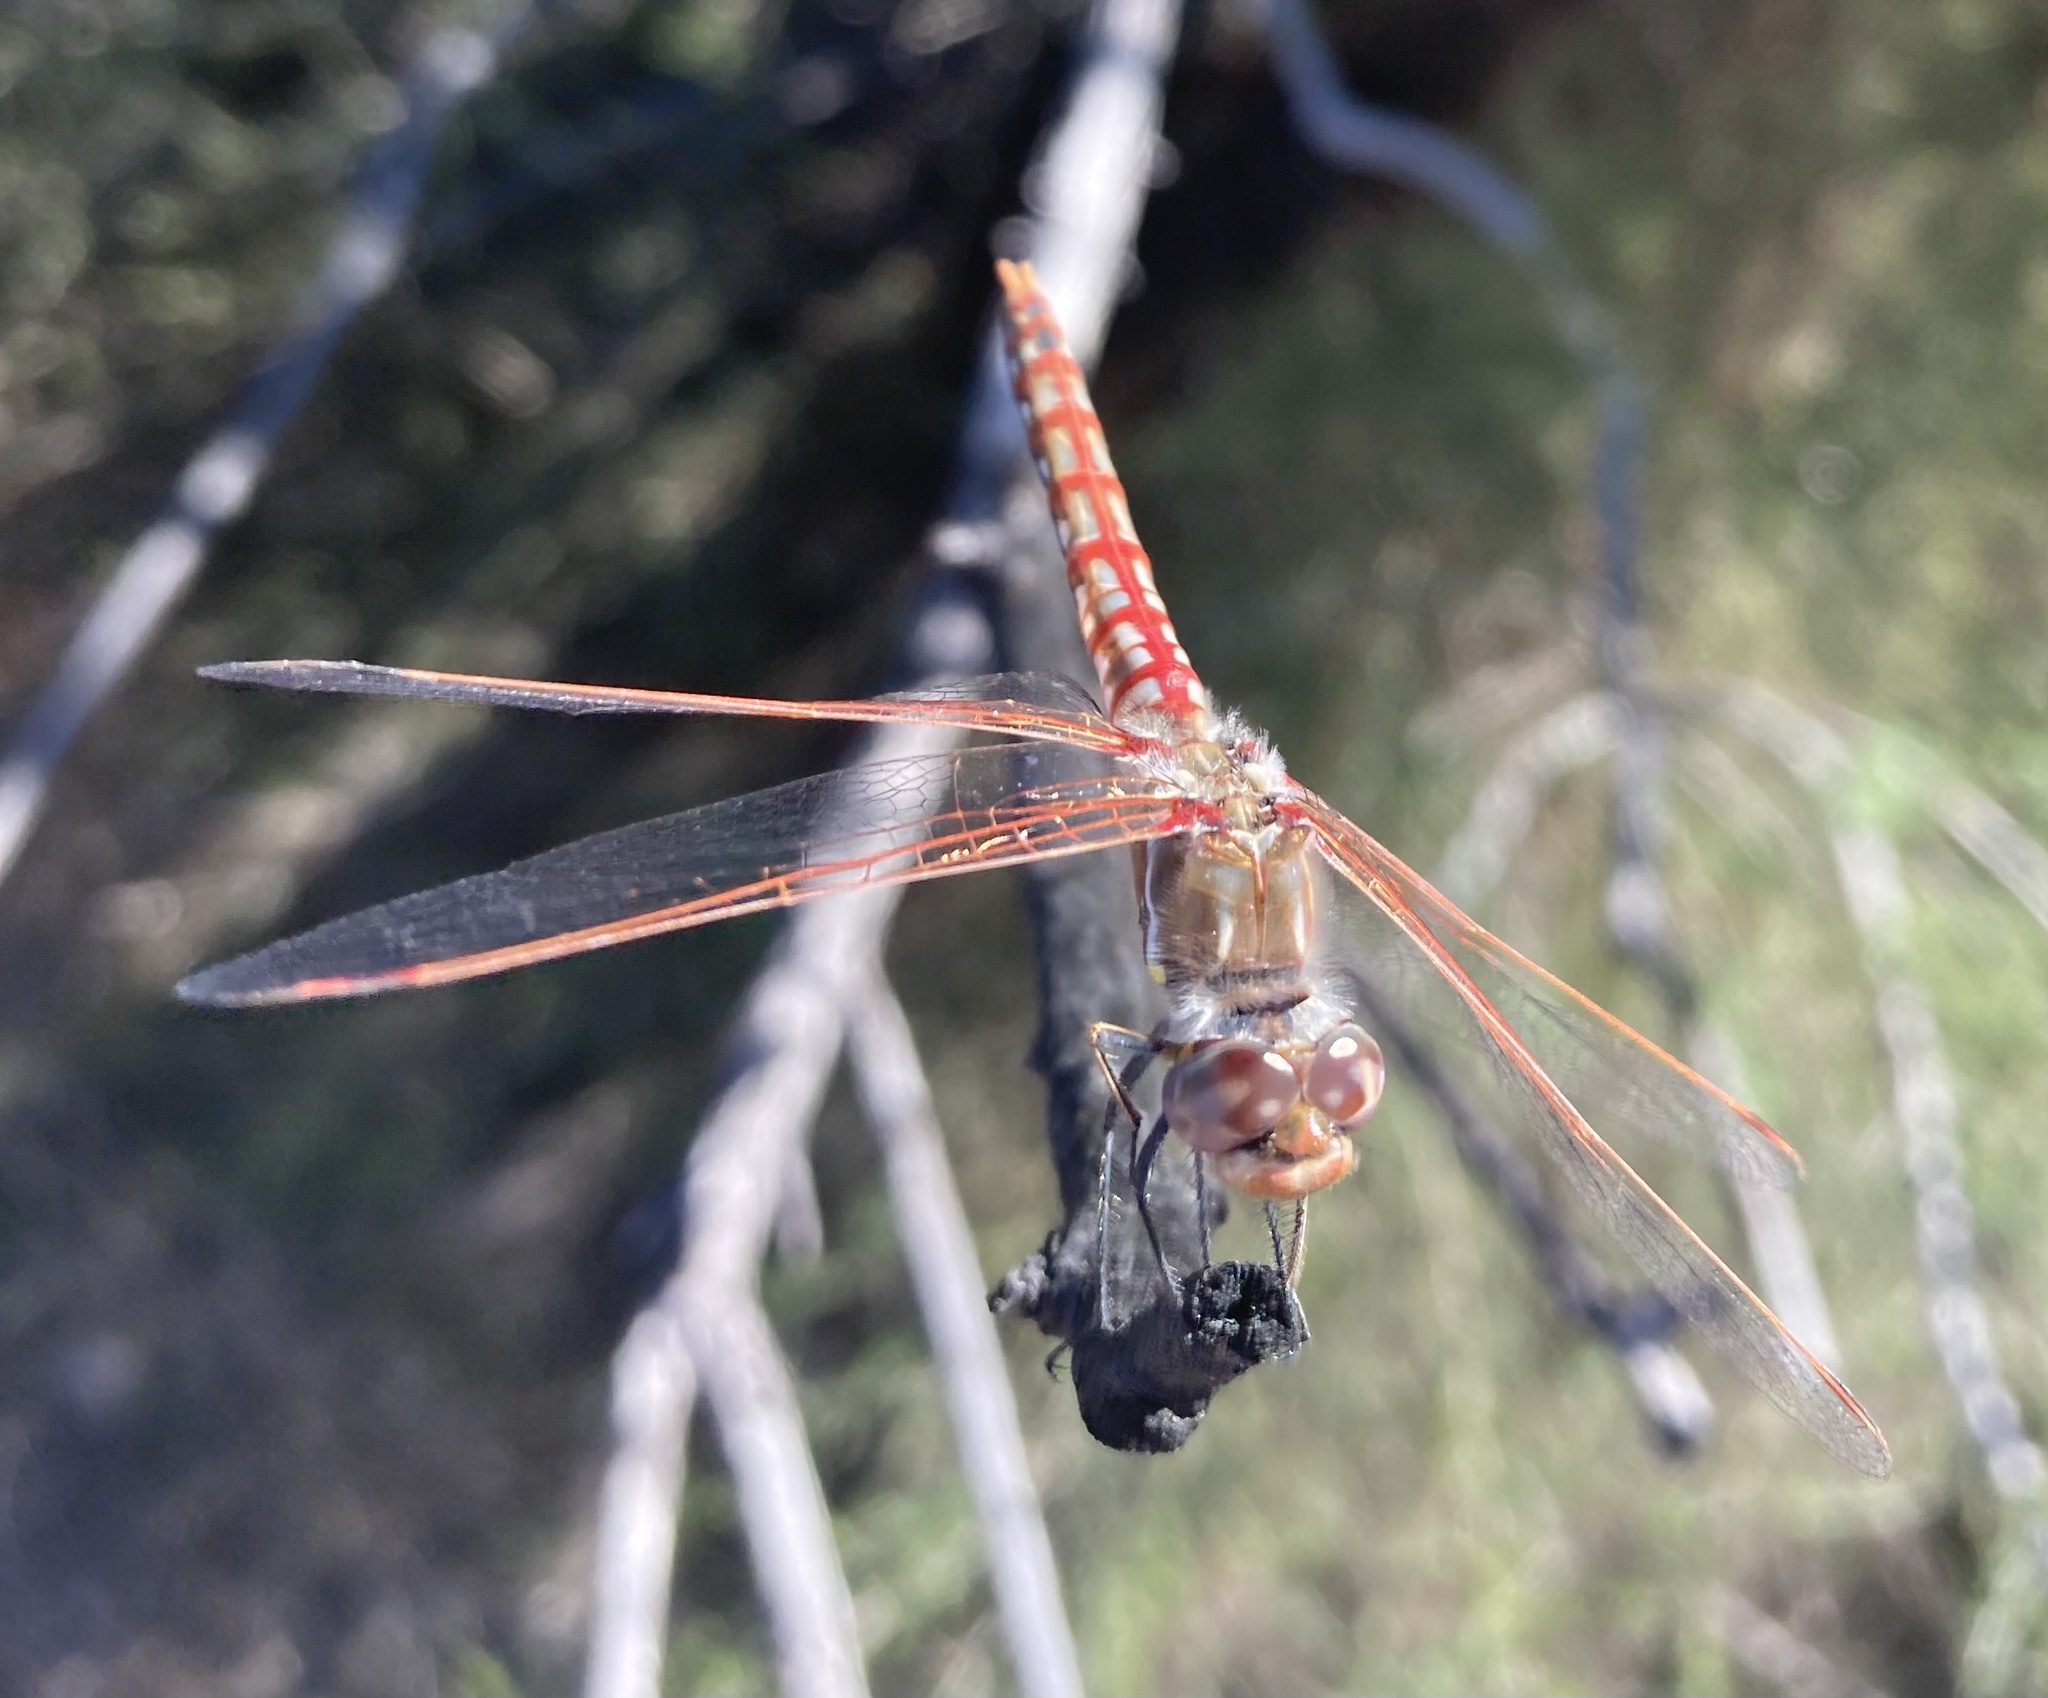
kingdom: Animalia
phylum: Arthropoda
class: Insecta
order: Odonata
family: Libellulidae
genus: Sympetrum
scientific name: Sympetrum corruptum
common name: Variegated meadowhawk
